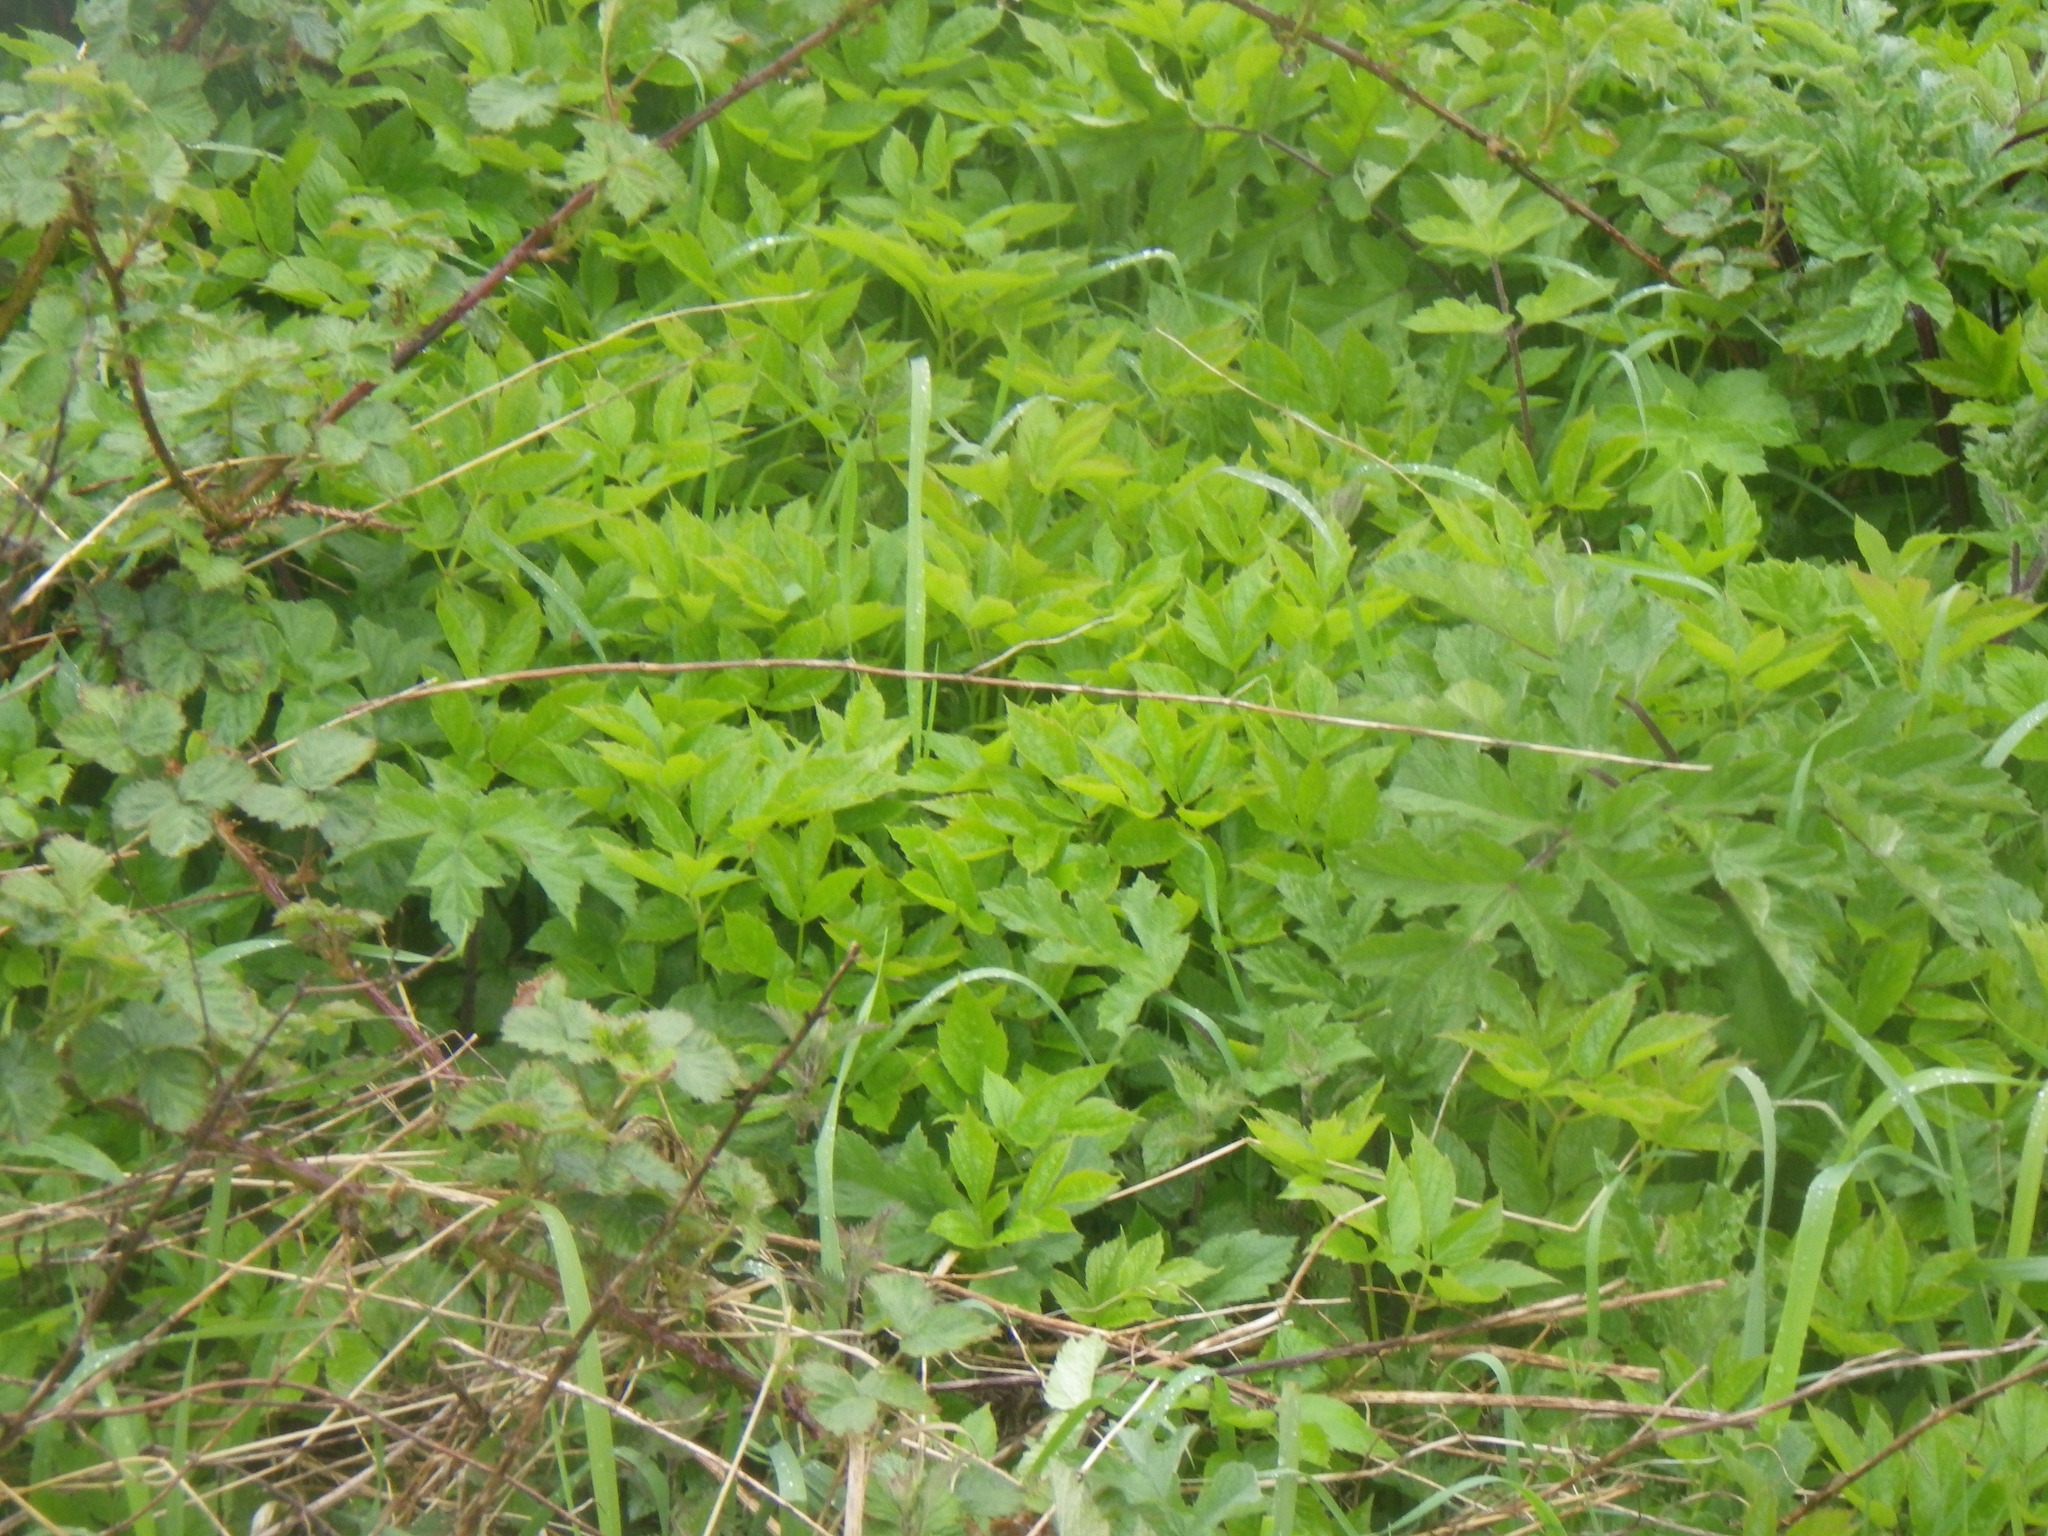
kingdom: Plantae
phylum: Tracheophyta
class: Magnoliopsida
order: Apiales
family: Apiaceae
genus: Aegopodium
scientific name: Aegopodium podagraria
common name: Ground-elder
